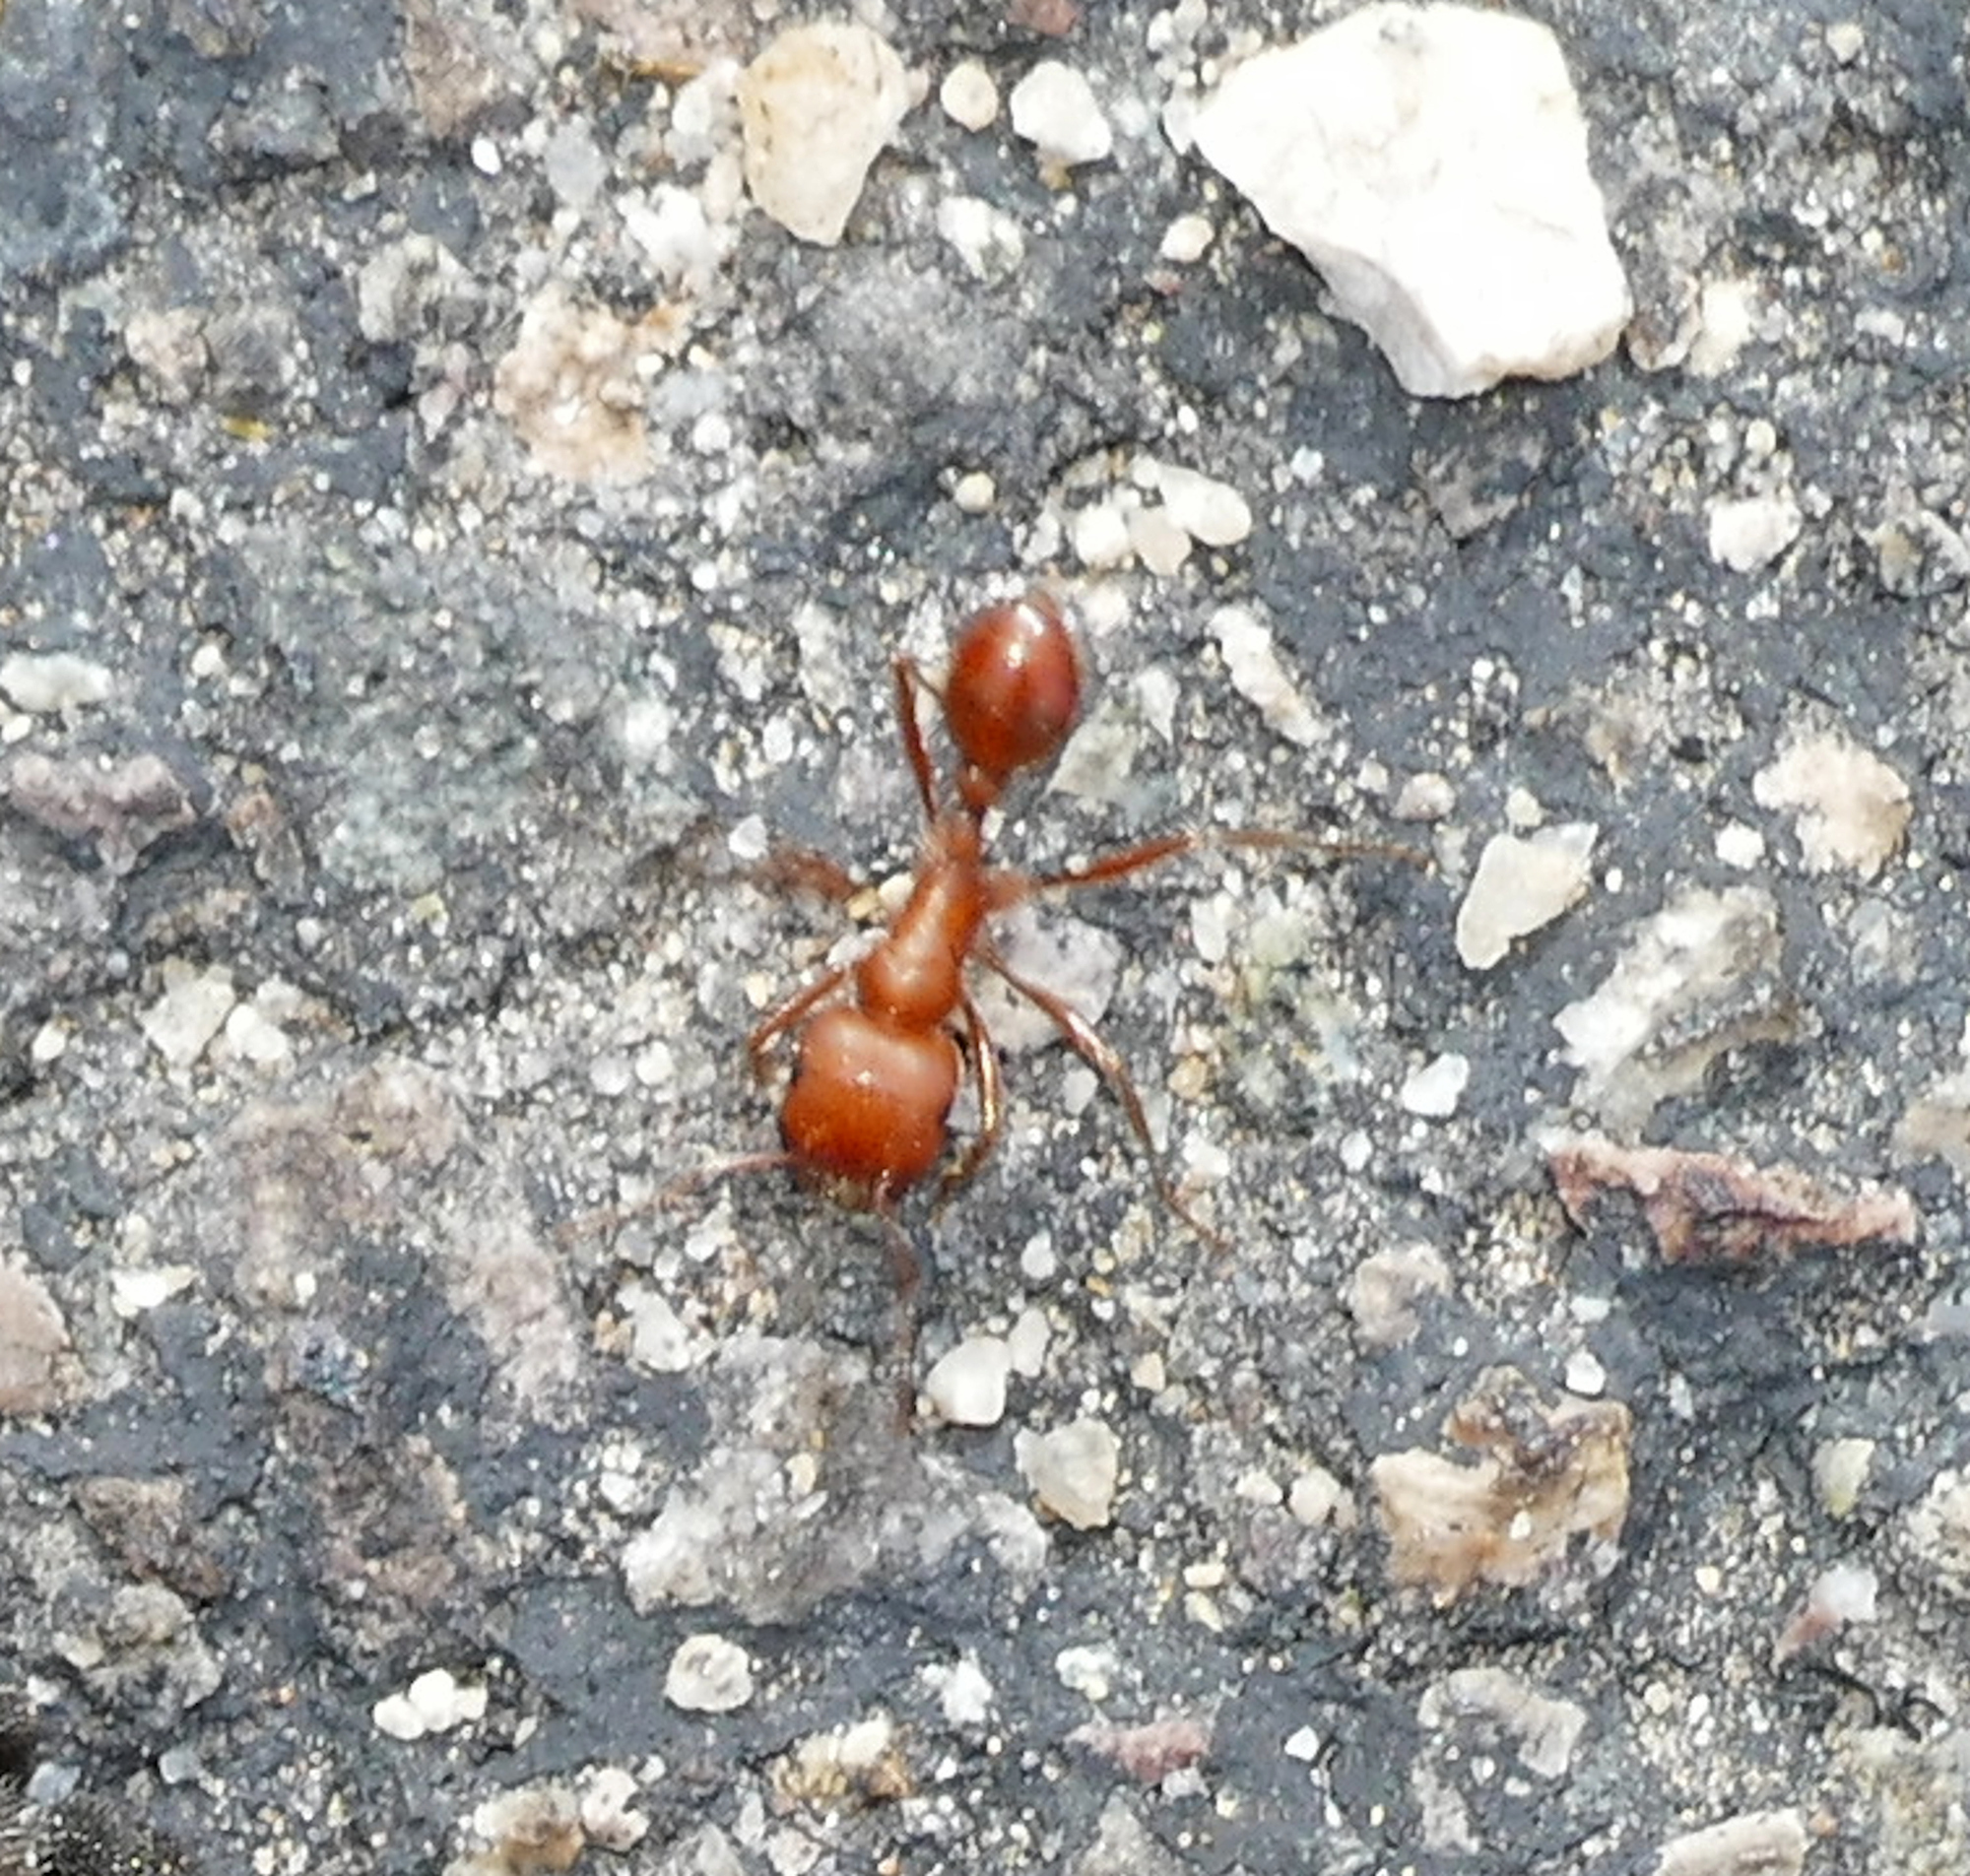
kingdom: Animalia
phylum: Arthropoda
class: Insecta
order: Hymenoptera
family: Formicidae
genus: Pogonomyrmex
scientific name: Pogonomyrmex maricopa
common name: Maricopa harvester ant
